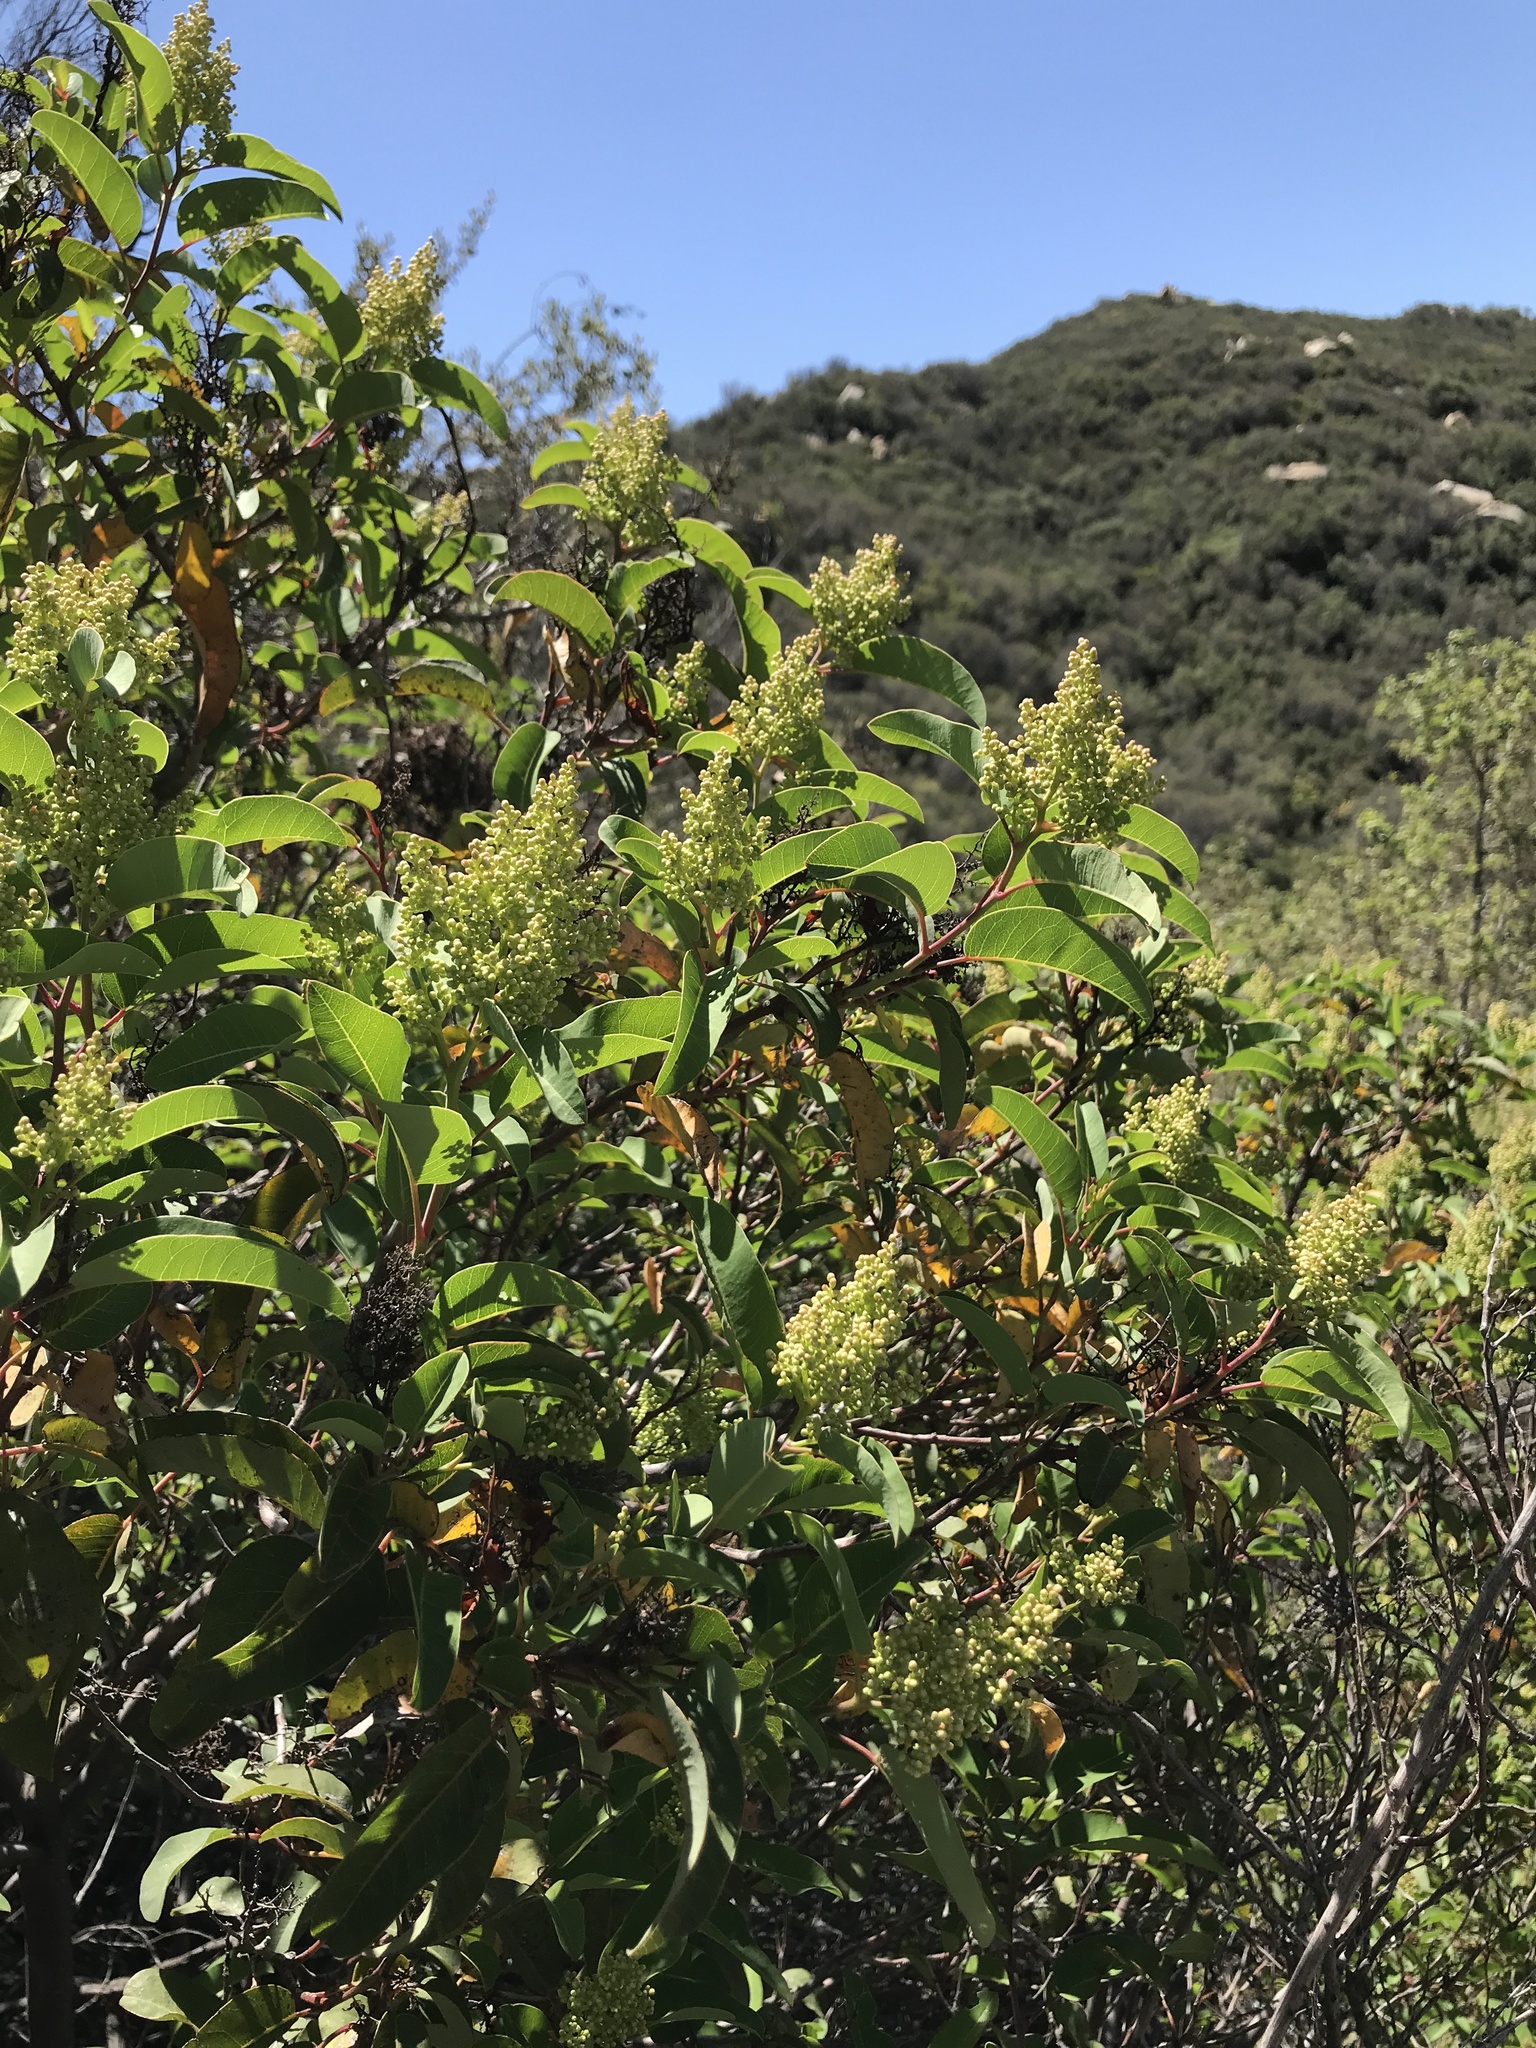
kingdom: Plantae
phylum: Tracheophyta
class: Magnoliopsida
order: Sapindales
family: Anacardiaceae
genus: Malosma
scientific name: Malosma laurina
